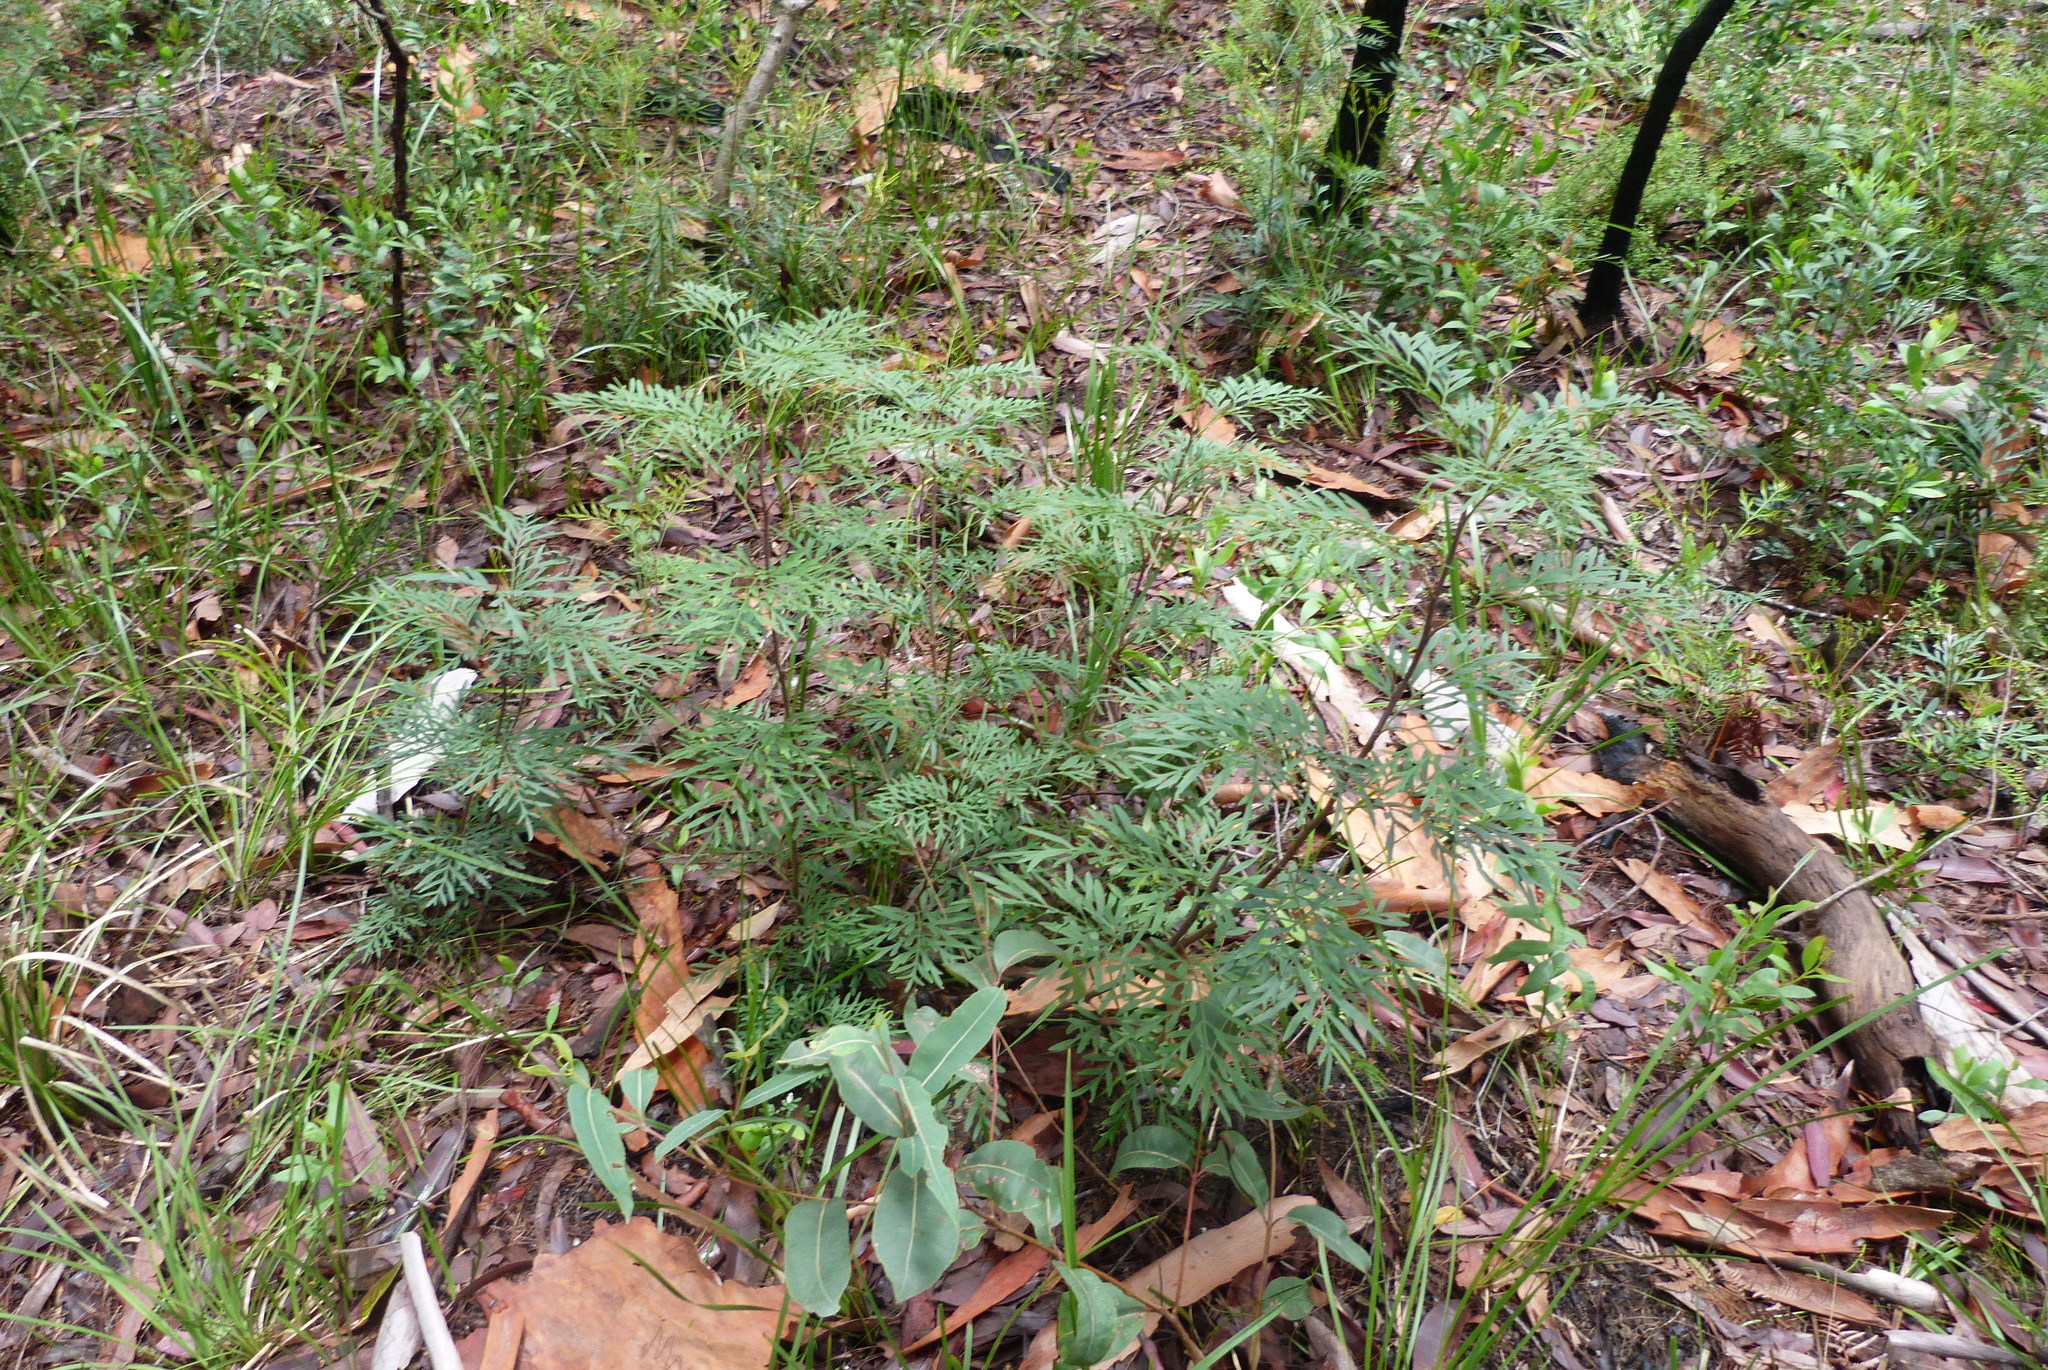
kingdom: Plantae
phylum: Tracheophyta
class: Magnoliopsida
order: Proteales
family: Proteaceae
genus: Lomatia
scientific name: Lomatia silaifolia
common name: Crinklebush
